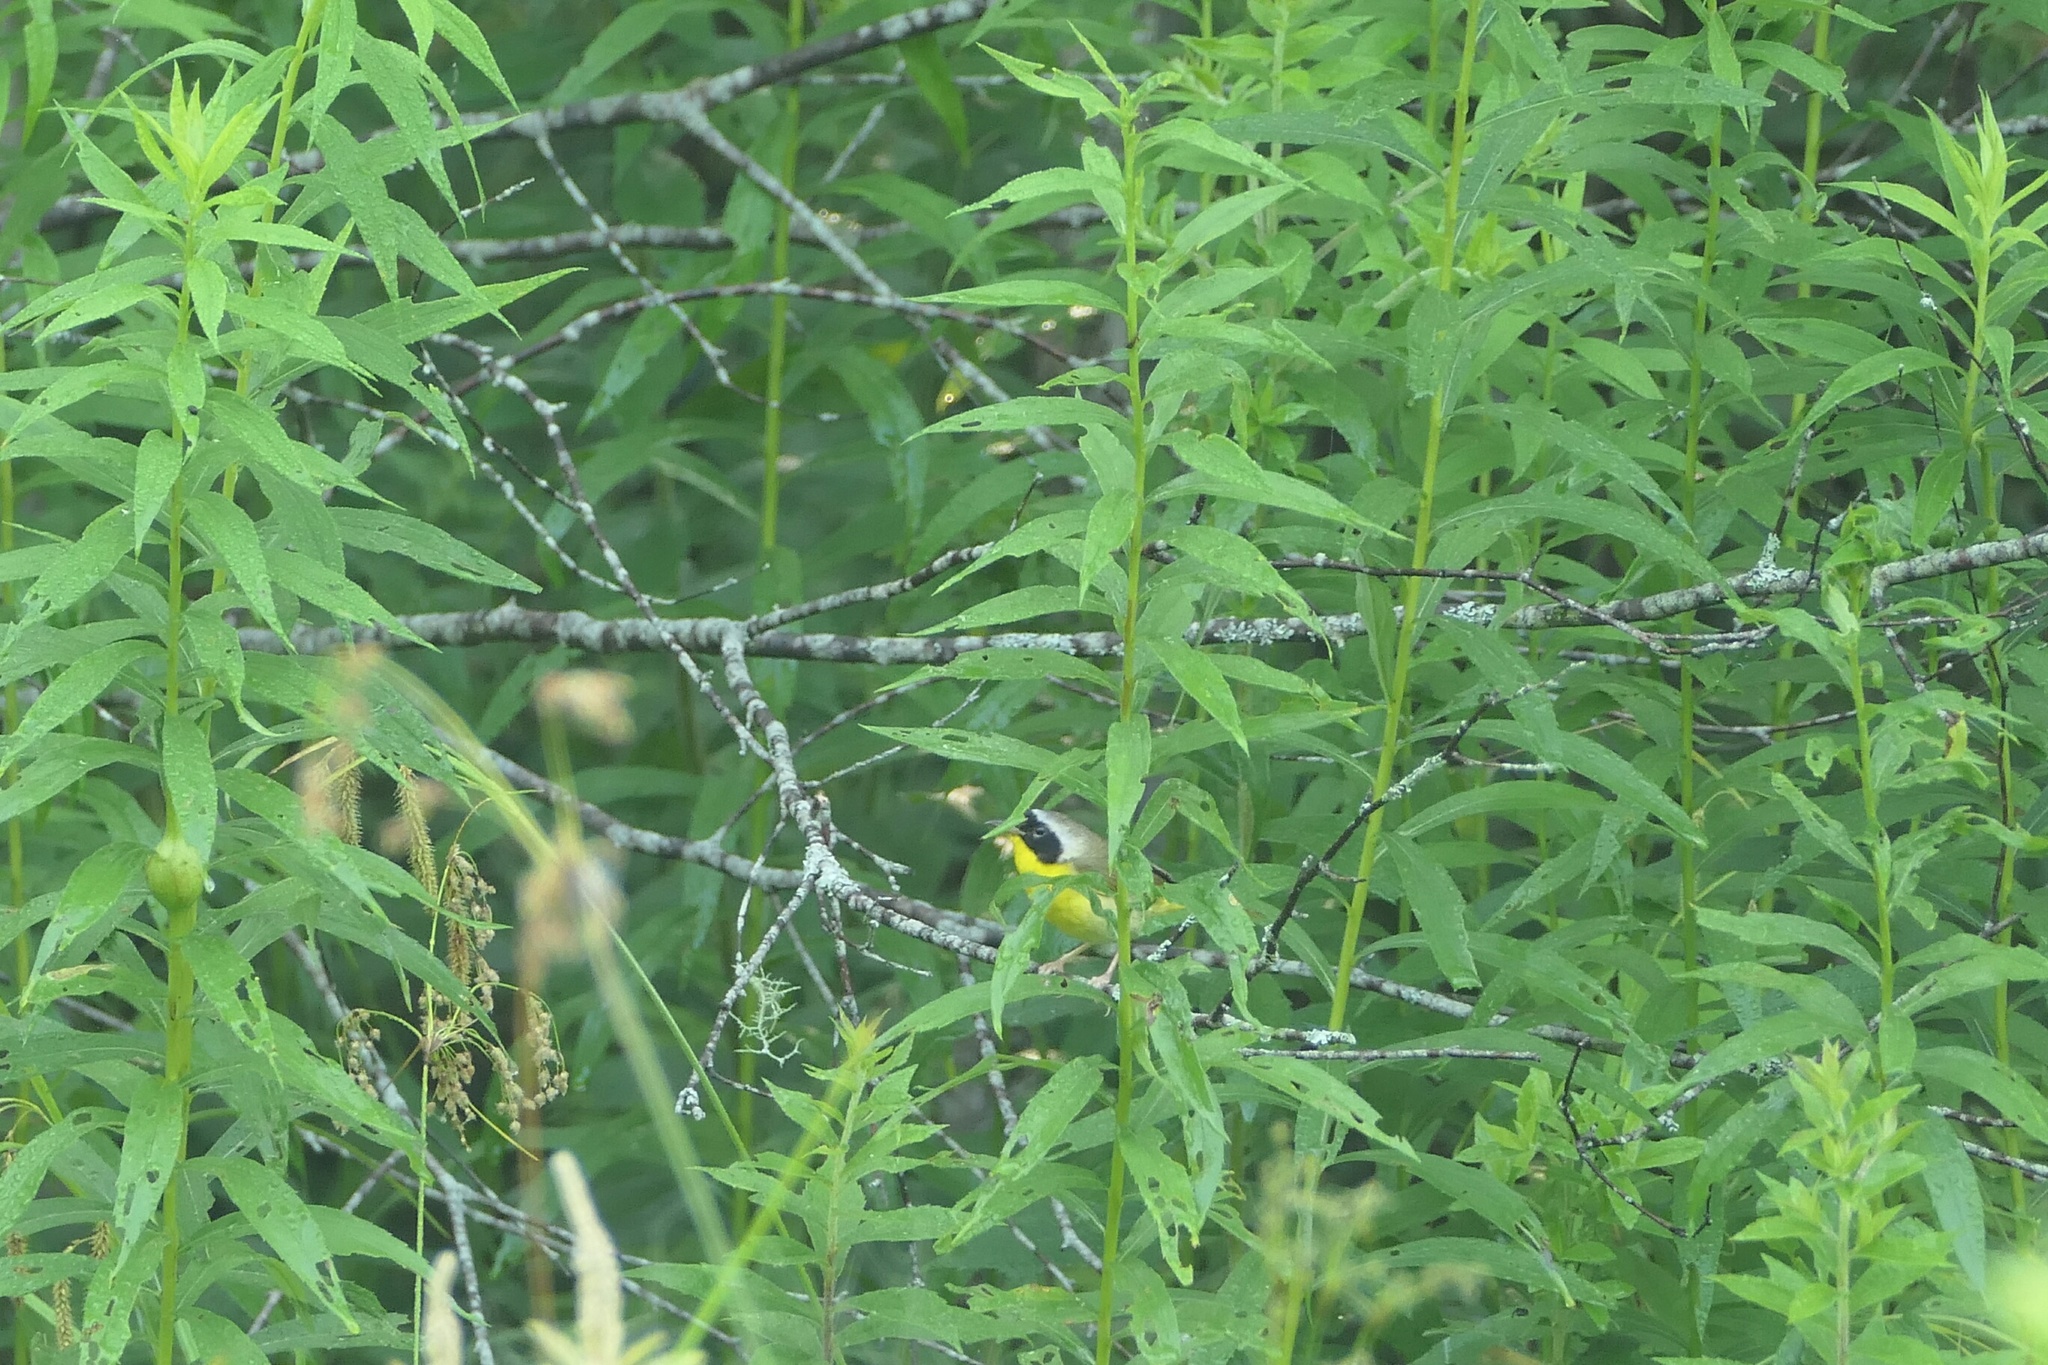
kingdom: Animalia
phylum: Chordata
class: Aves
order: Passeriformes
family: Parulidae
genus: Geothlypis
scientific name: Geothlypis trichas
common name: Common yellowthroat
